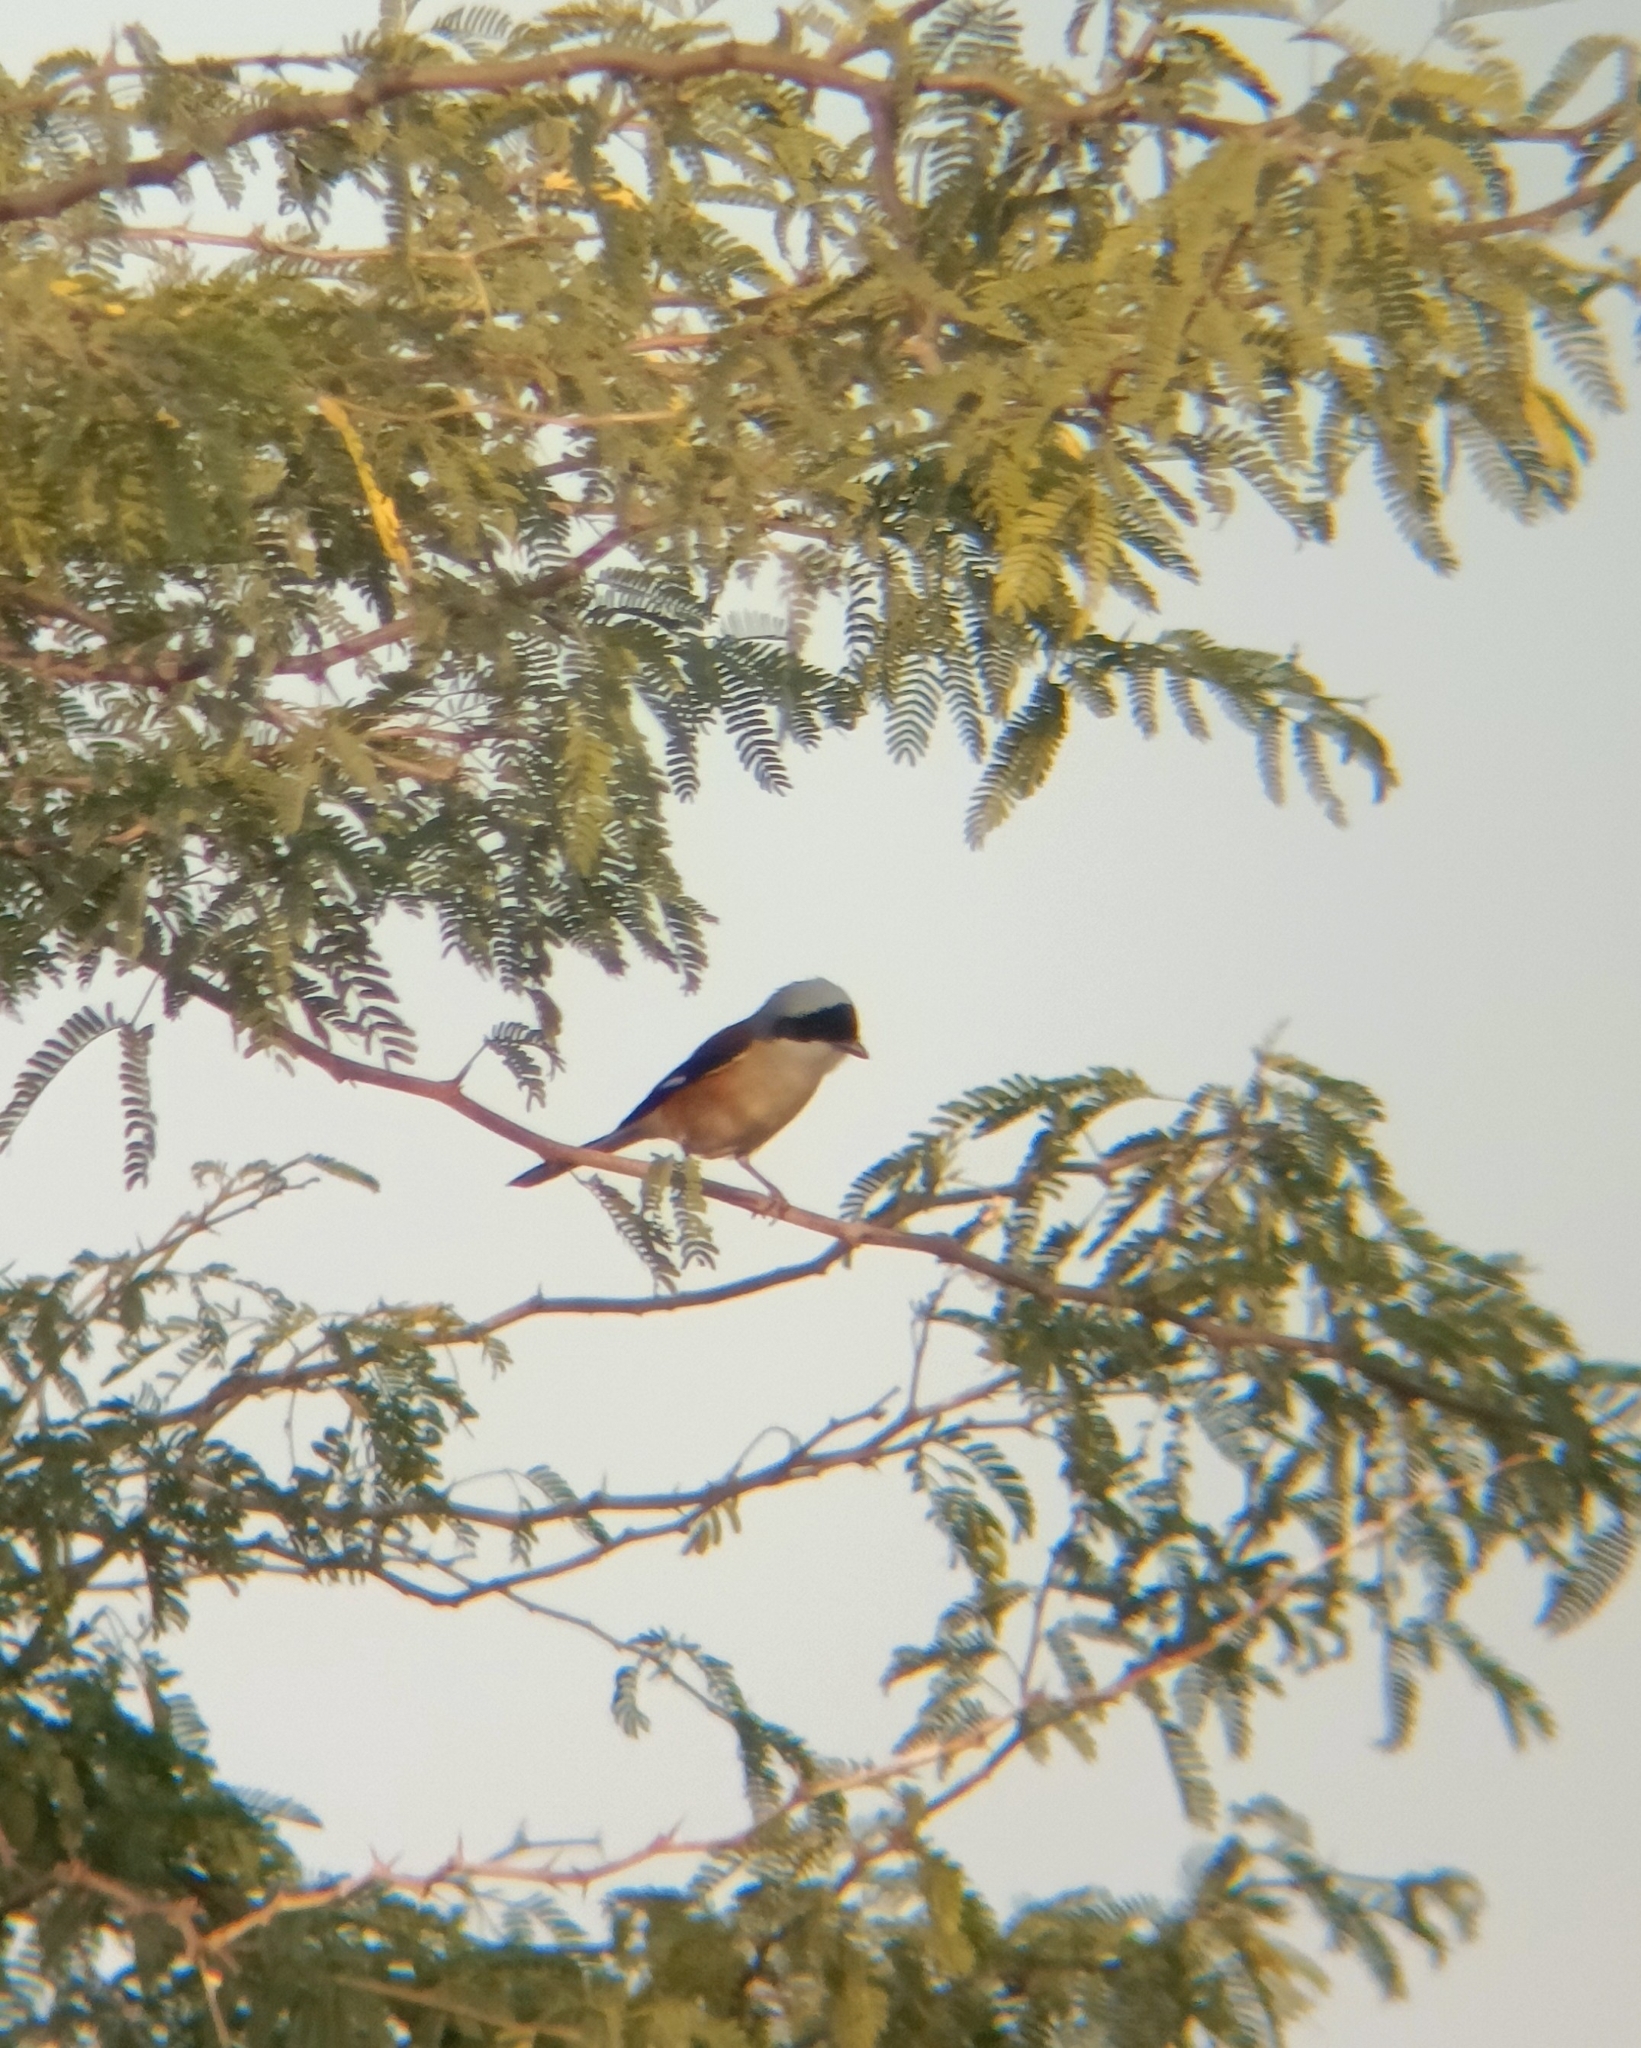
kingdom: Animalia
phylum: Chordata
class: Aves
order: Passeriformes
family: Laniidae
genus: Lanius
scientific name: Lanius vittatus
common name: Bay-backed shrike
